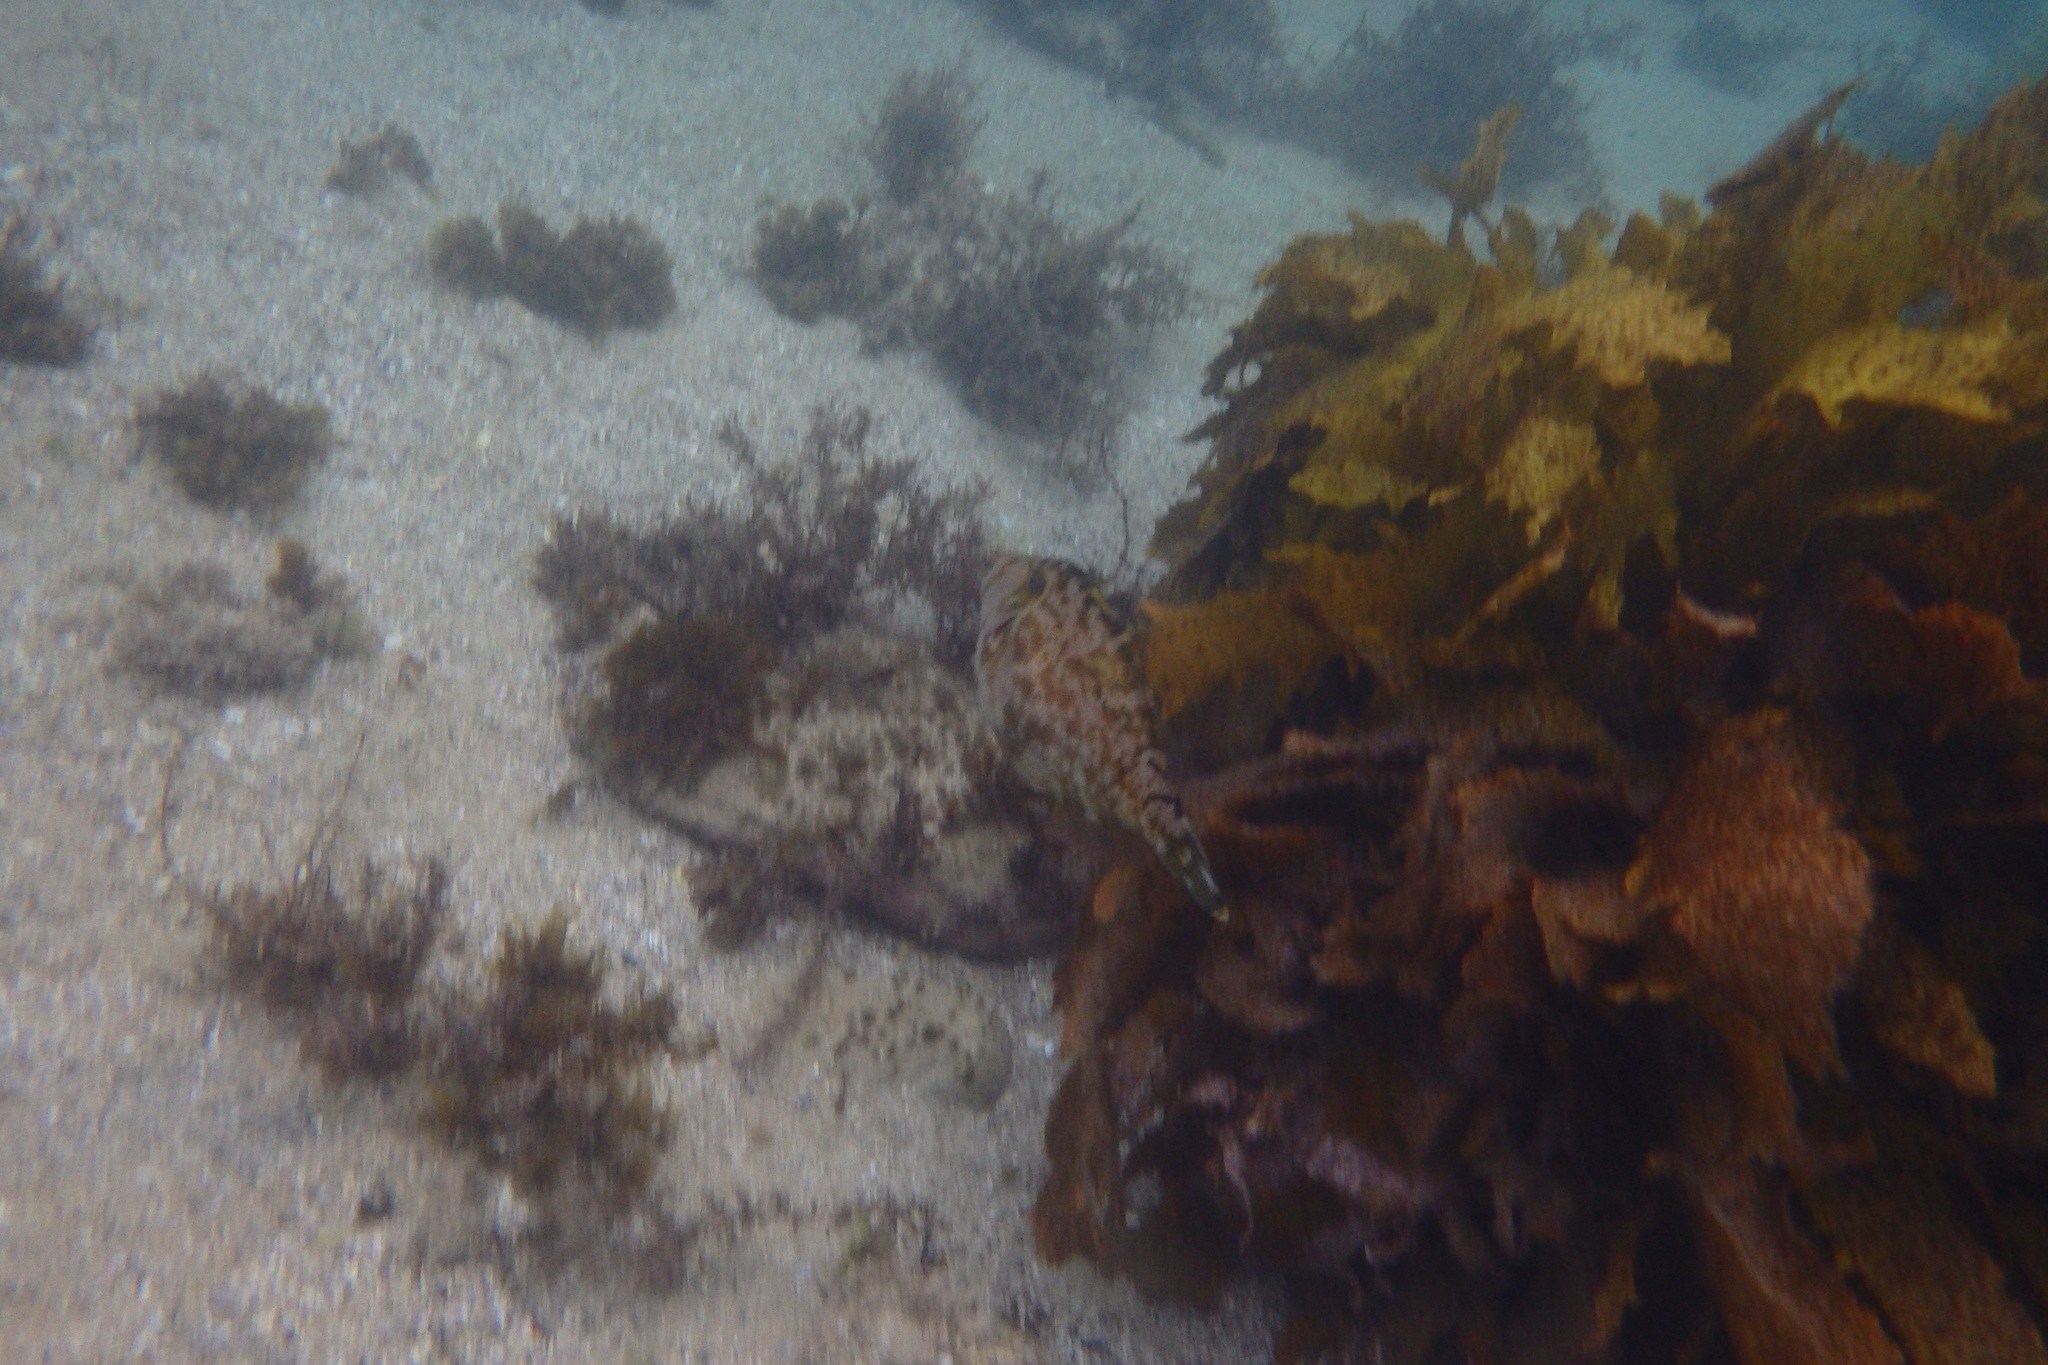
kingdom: Animalia
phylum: Chordata
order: Tetraodontiformes
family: Monacanthidae
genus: Scobinichthys
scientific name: Scobinichthys granulatus
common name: Rough leatherjacket
